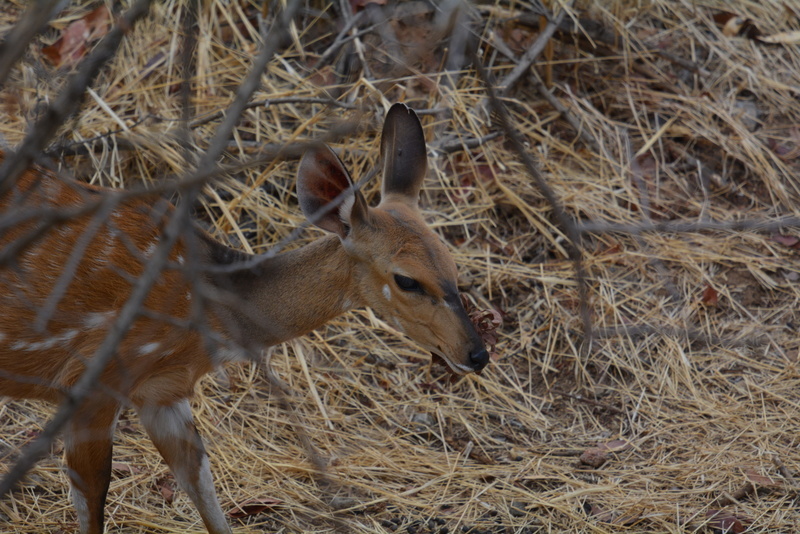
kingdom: Animalia
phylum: Chordata
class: Mammalia
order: Artiodactyla
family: Bovidae
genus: Tragelaphus
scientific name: Tragelaphus scriptus
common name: Bushbuck
